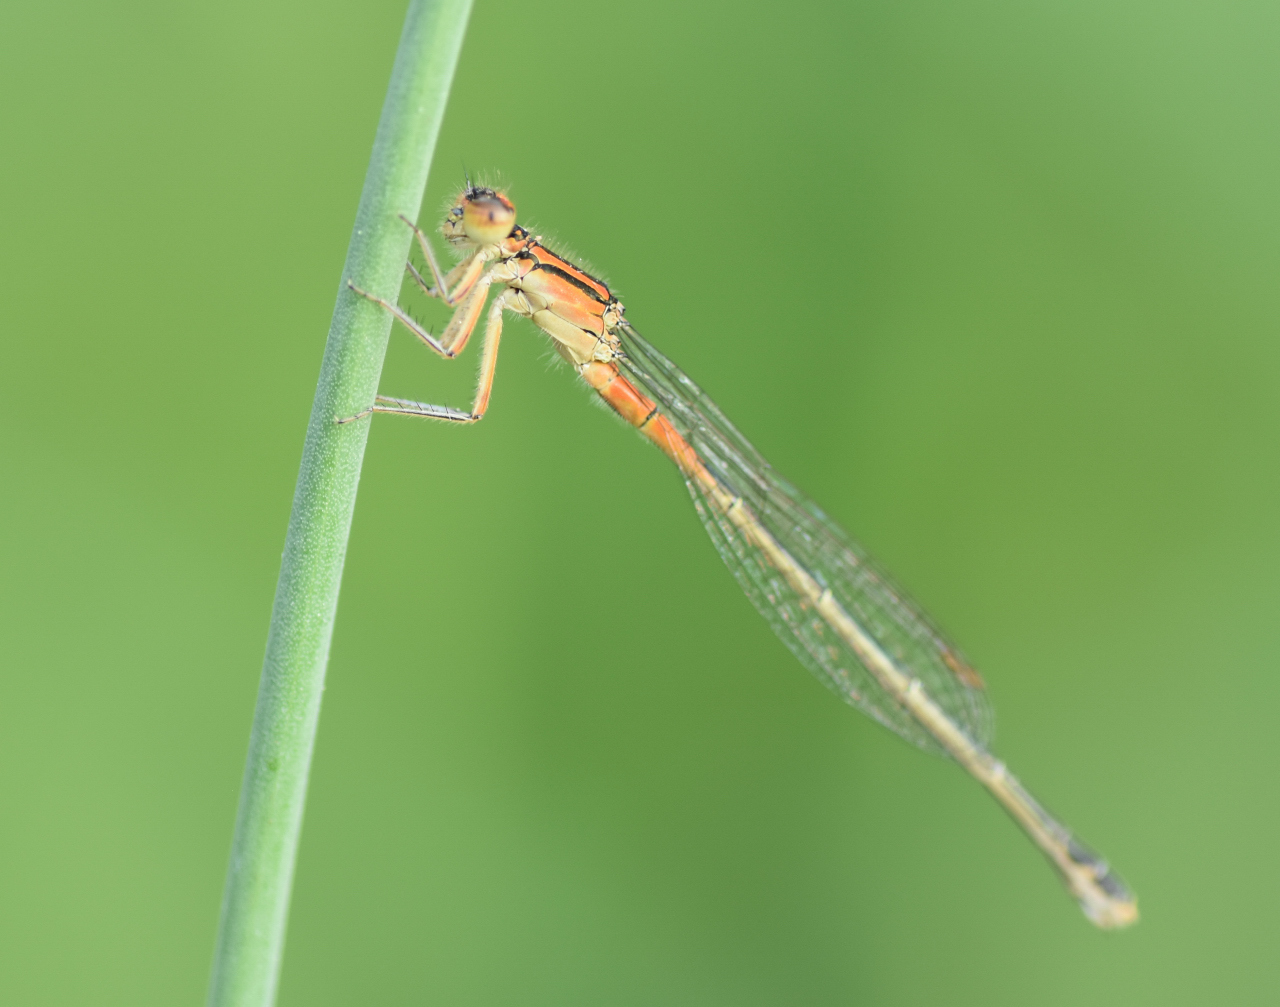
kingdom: Animalia
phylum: Arthropoda
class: Insecta
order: Odonata
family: Coenagrionidae
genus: Ischnura
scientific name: Ischnura verticalis
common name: Eastern forktail
